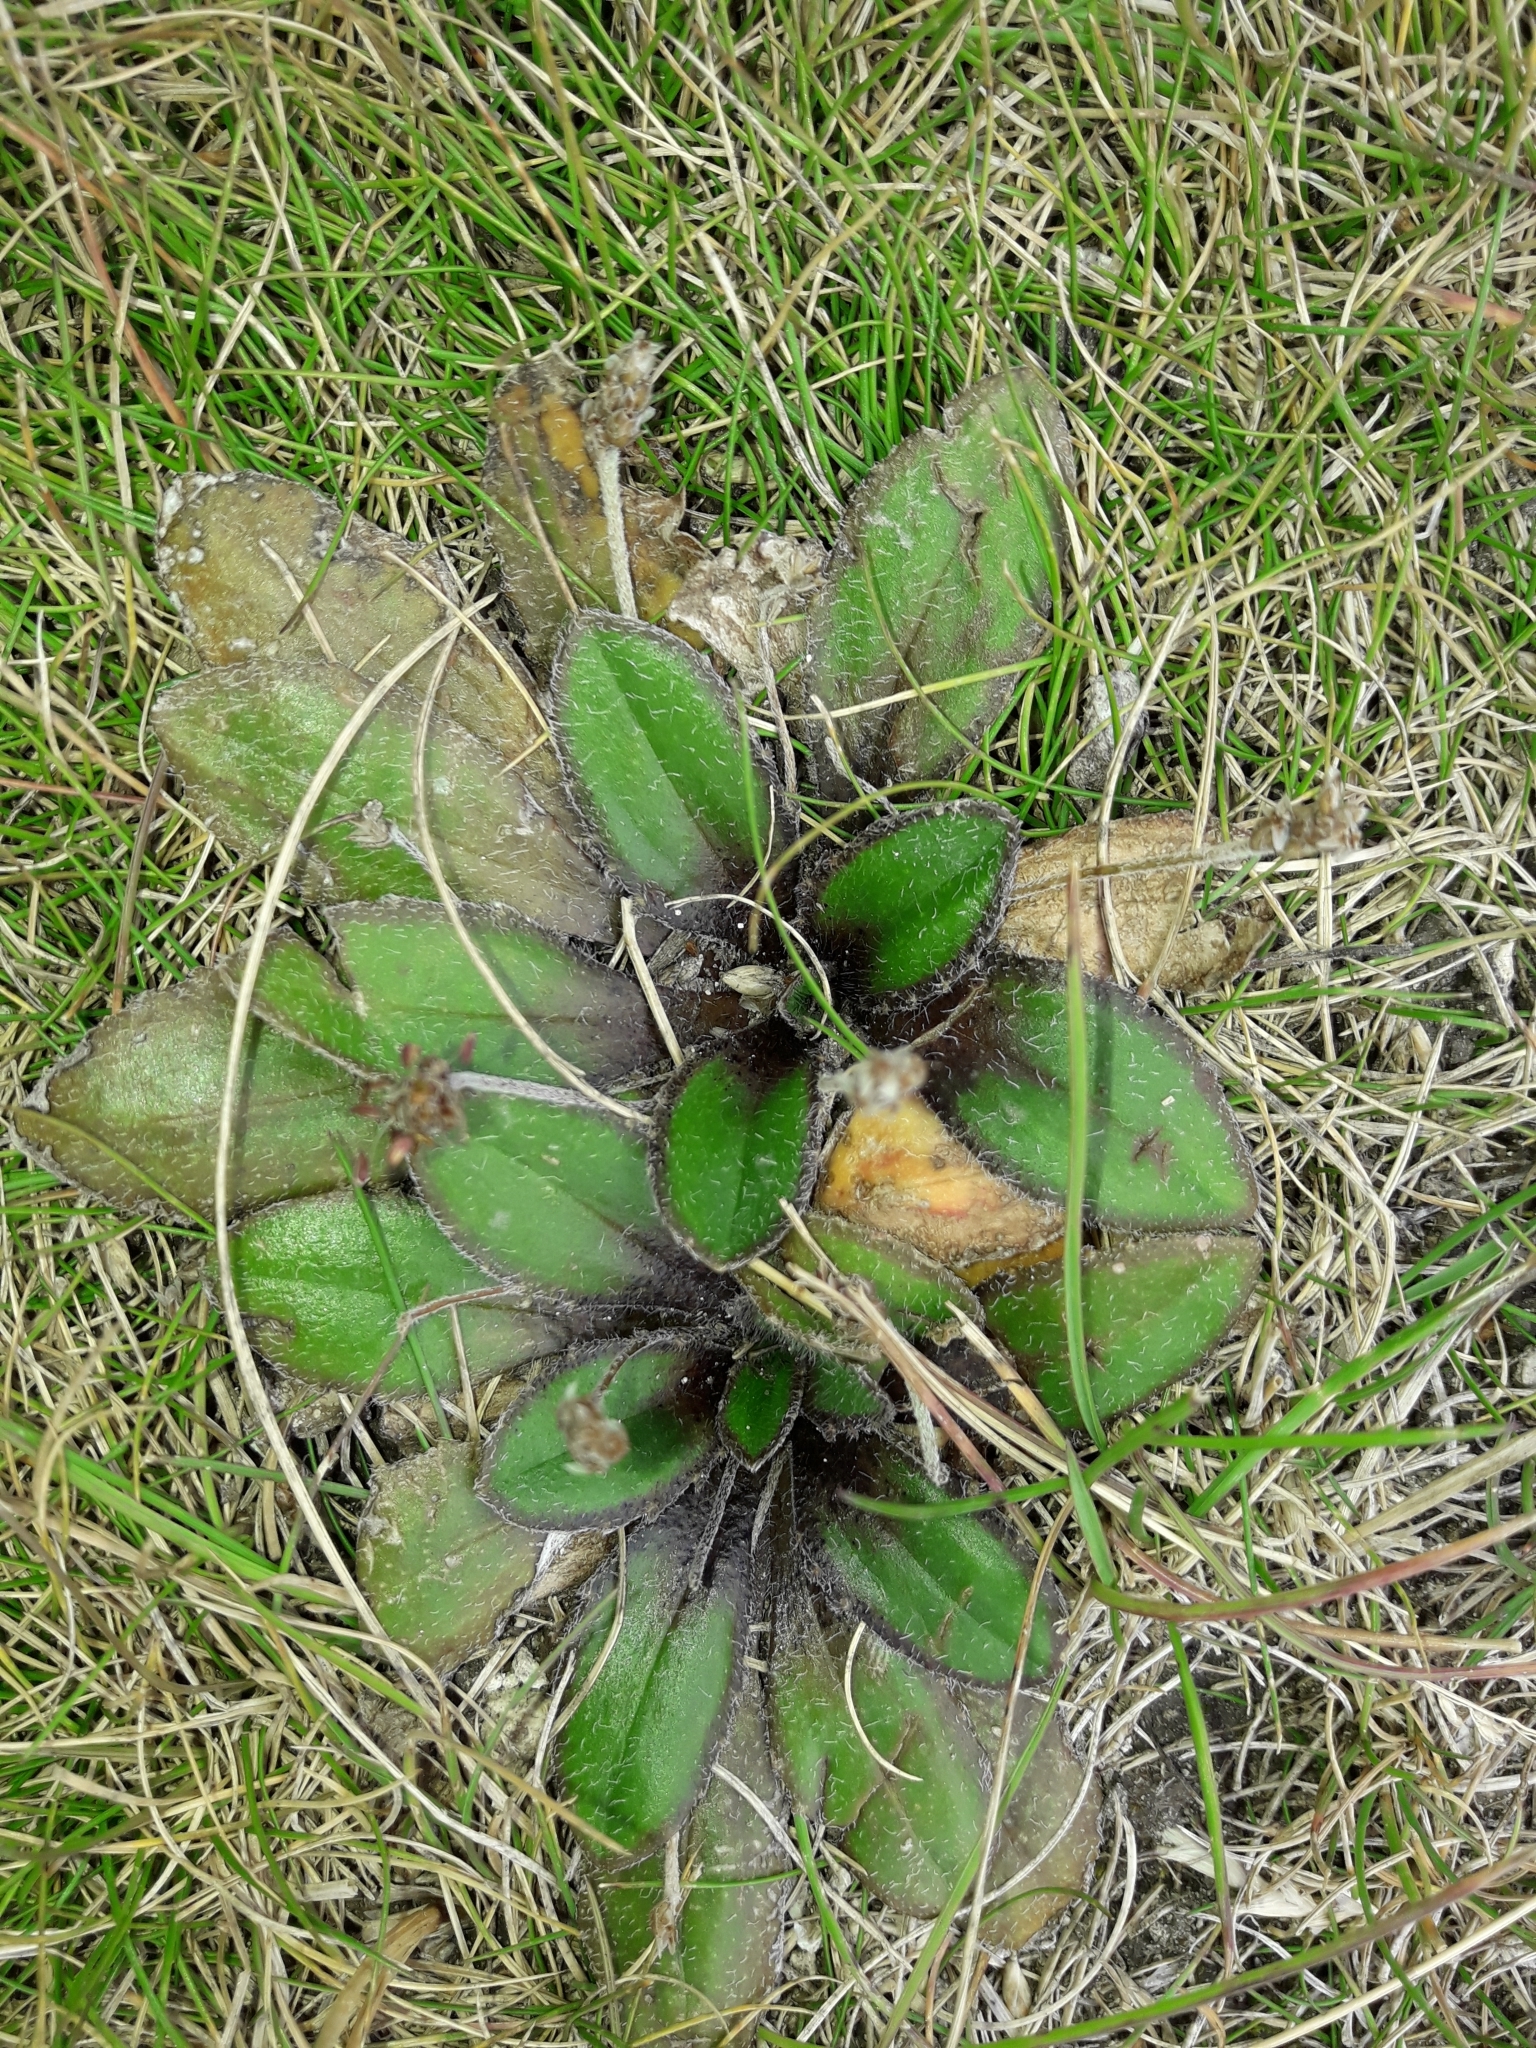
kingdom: Plantae
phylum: Tracheophyta
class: Magnoliopsida
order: Lamiales
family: Plantaginaceae
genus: Plantago
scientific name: Plantago spathulata
